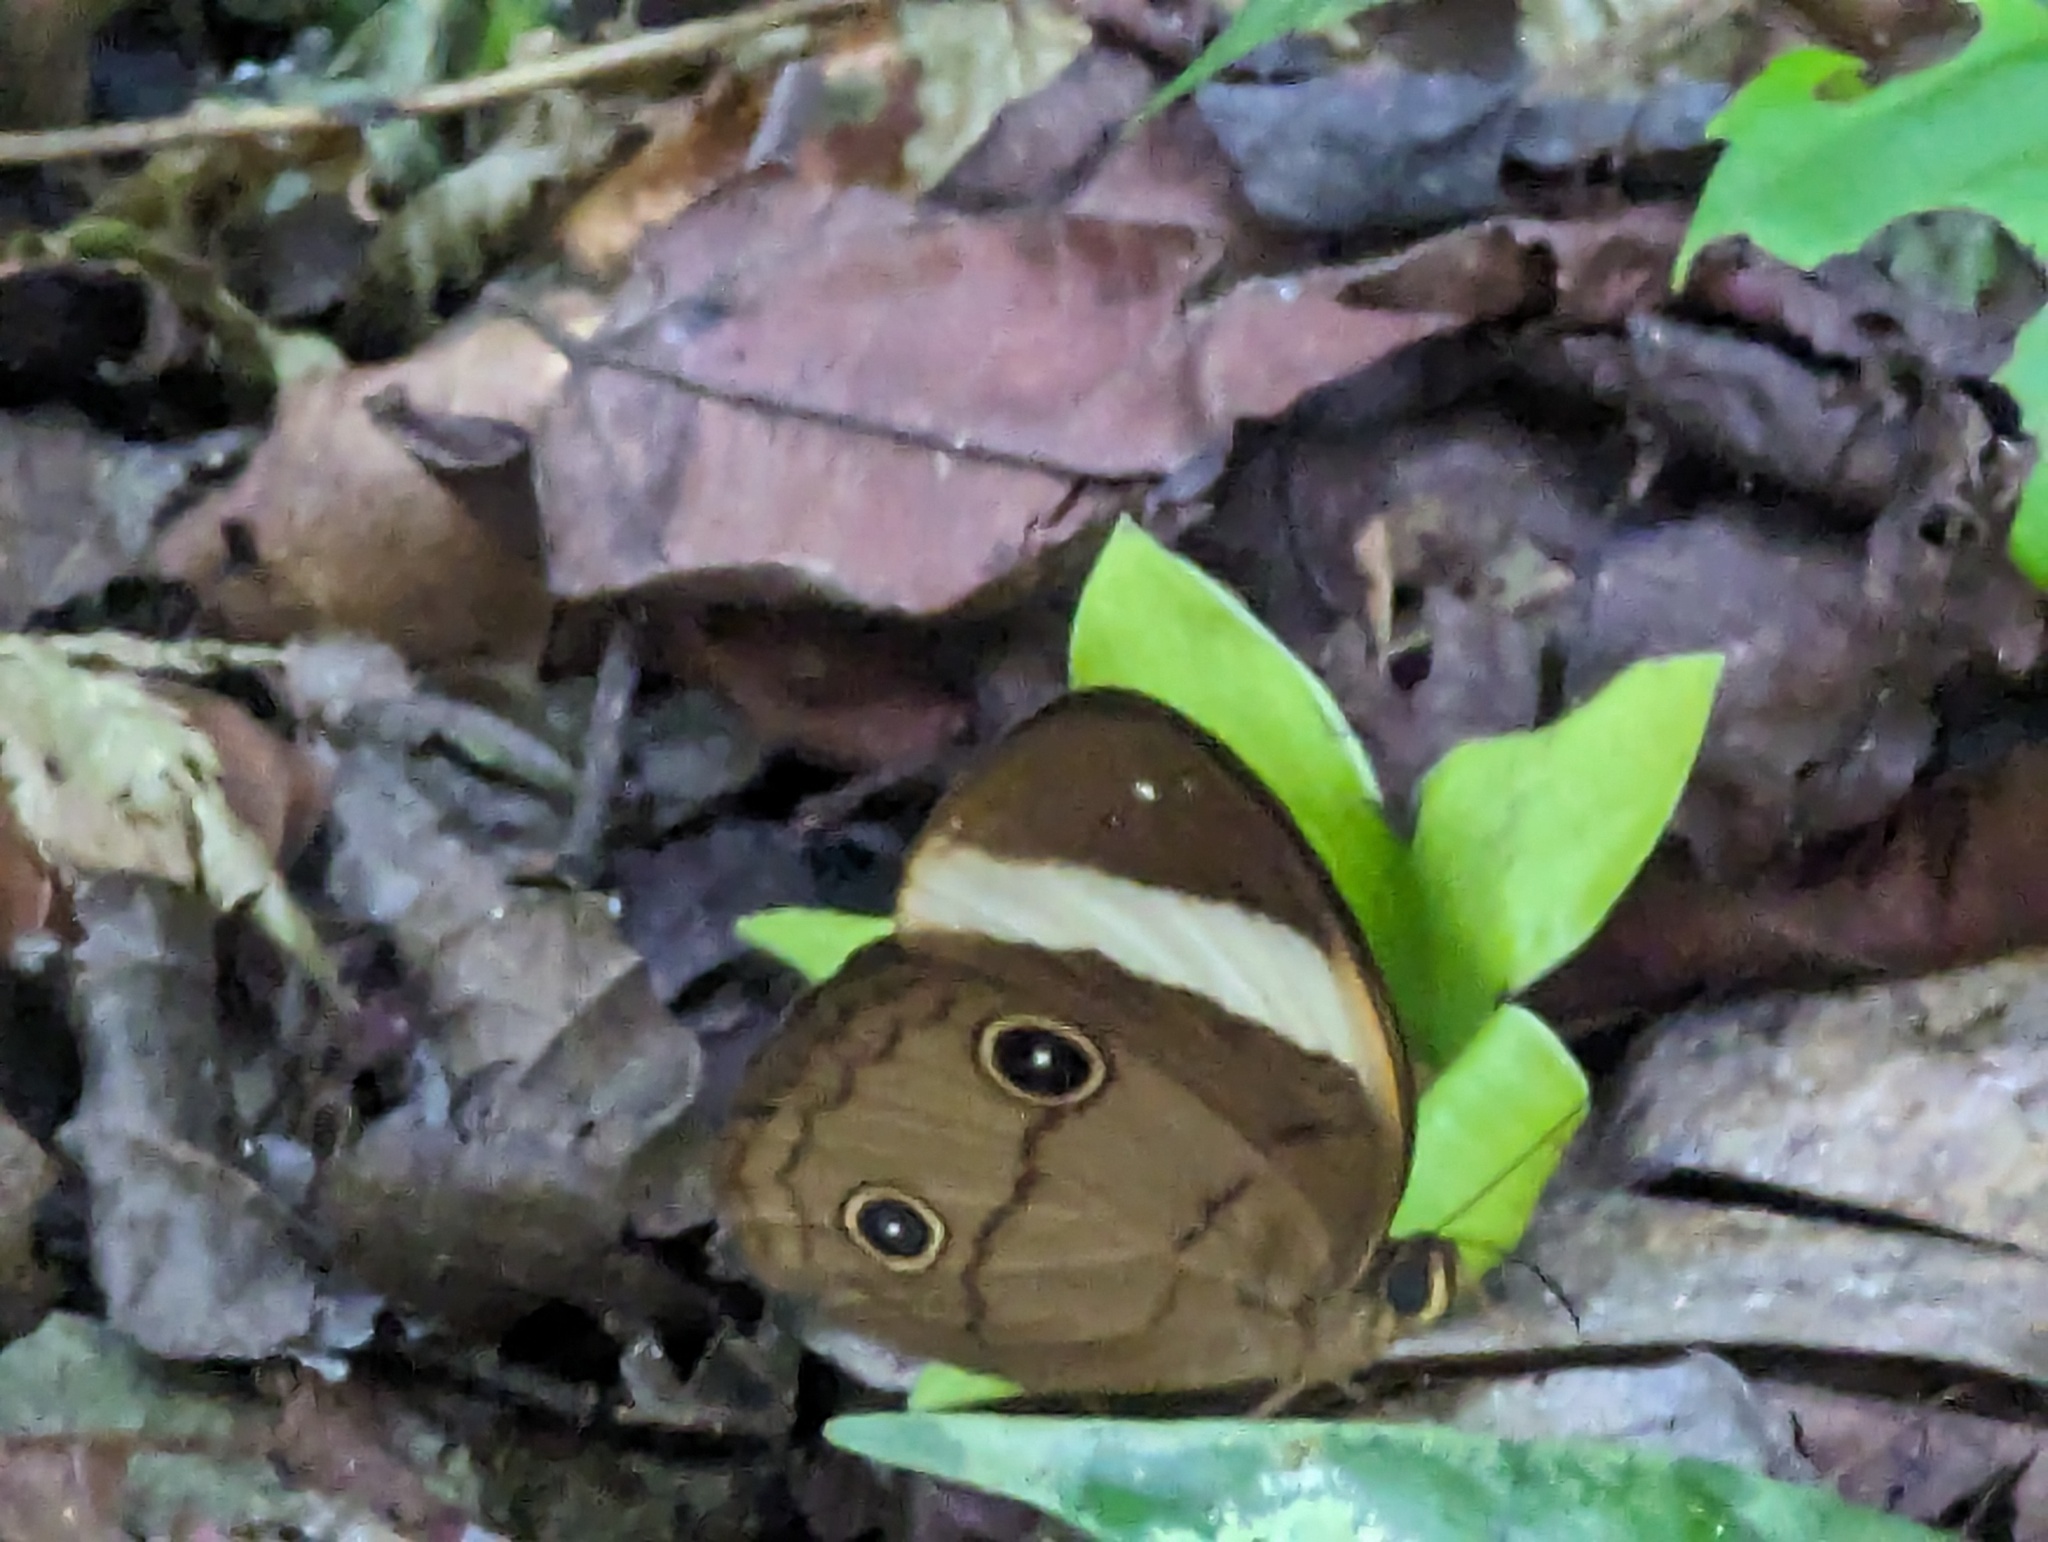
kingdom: Animalia
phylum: Arthropoda
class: Insecta
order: Lepidoptera
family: Nymphalidae
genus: Faunis
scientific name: Faunis sappho
